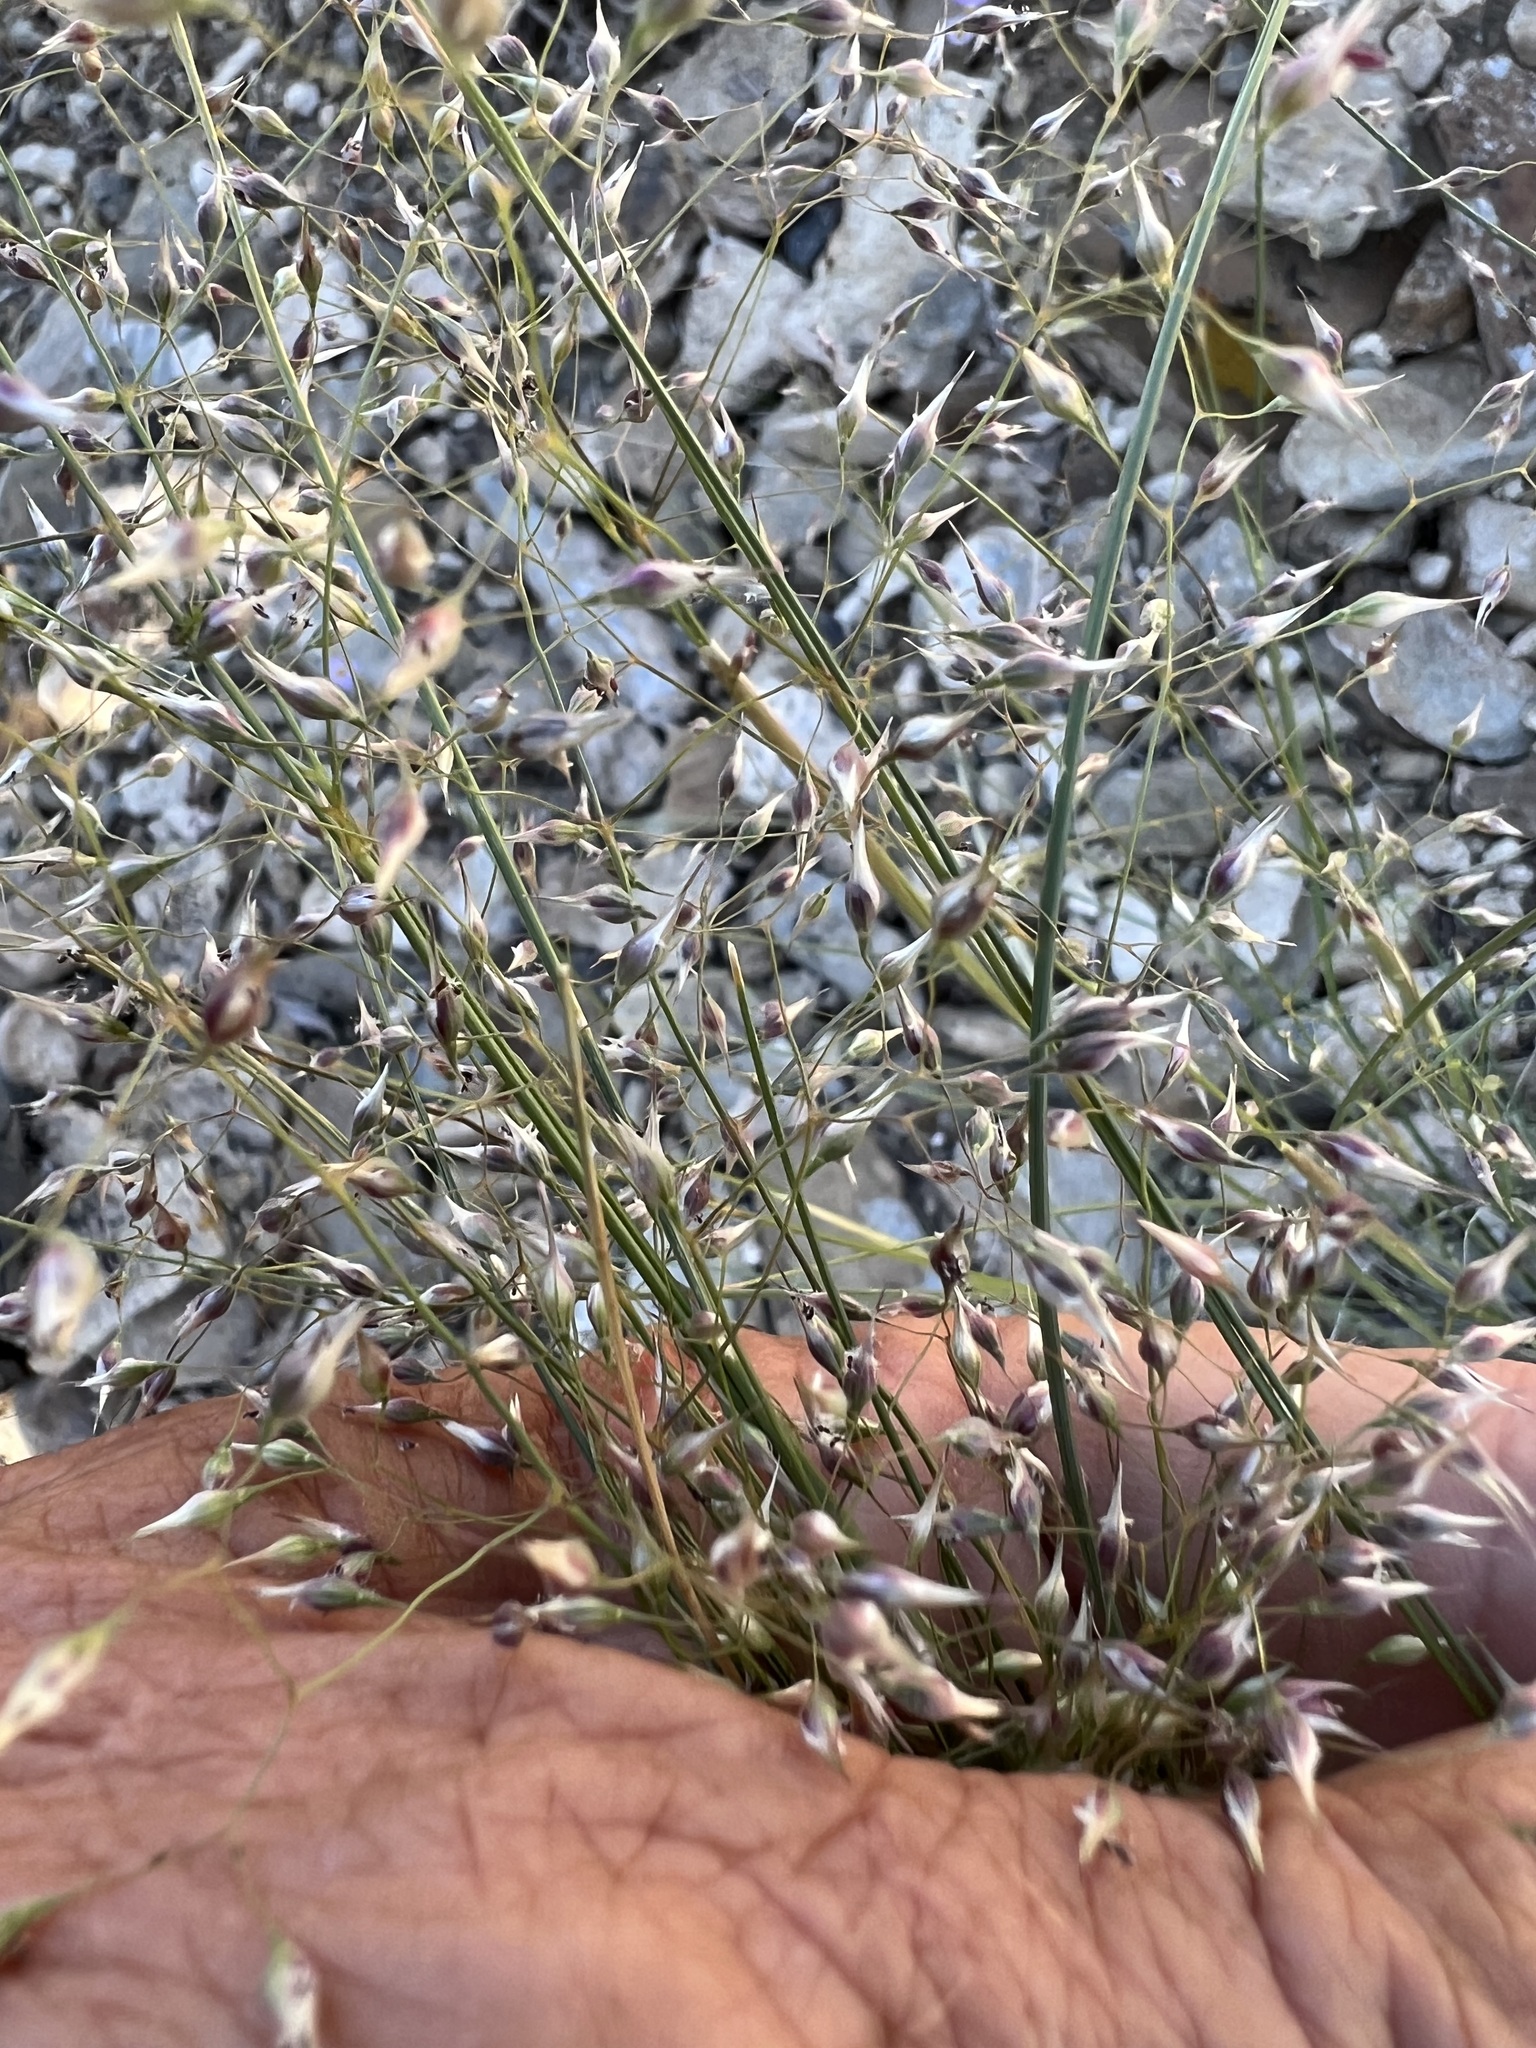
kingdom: Plantae
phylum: Tracheophyta
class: Liliopsida
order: Poales
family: Poaceae
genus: Eriocoma
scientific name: Eriocoma hymenoides
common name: Indian mountain ricegrass
